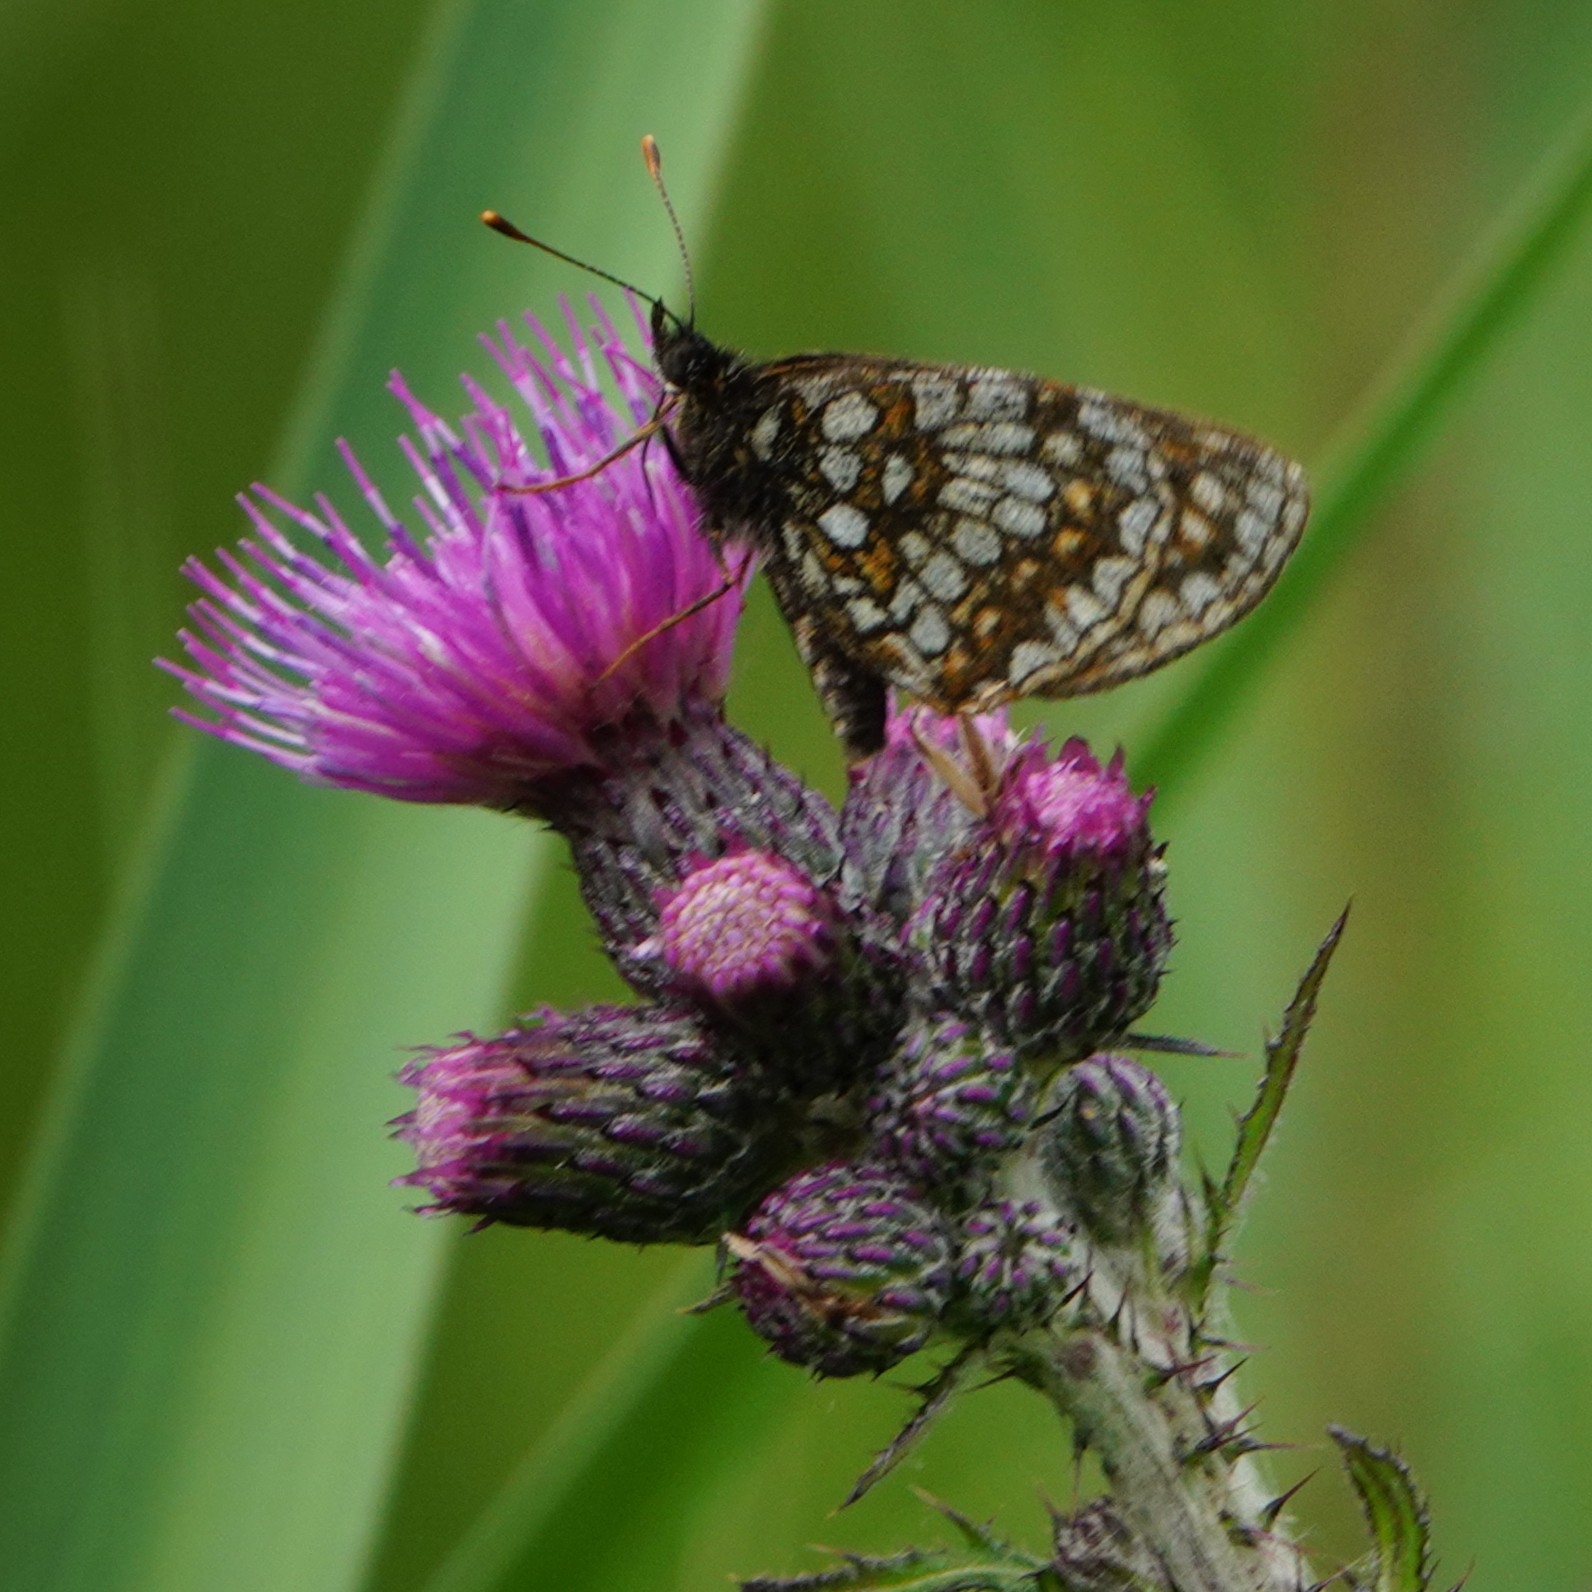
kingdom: Animalia
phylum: Arthropoda
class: Insecta
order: Lepidoptera
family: Nymphalidae
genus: Melitaea
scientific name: Melitaea diamina
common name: False heath fritillary
